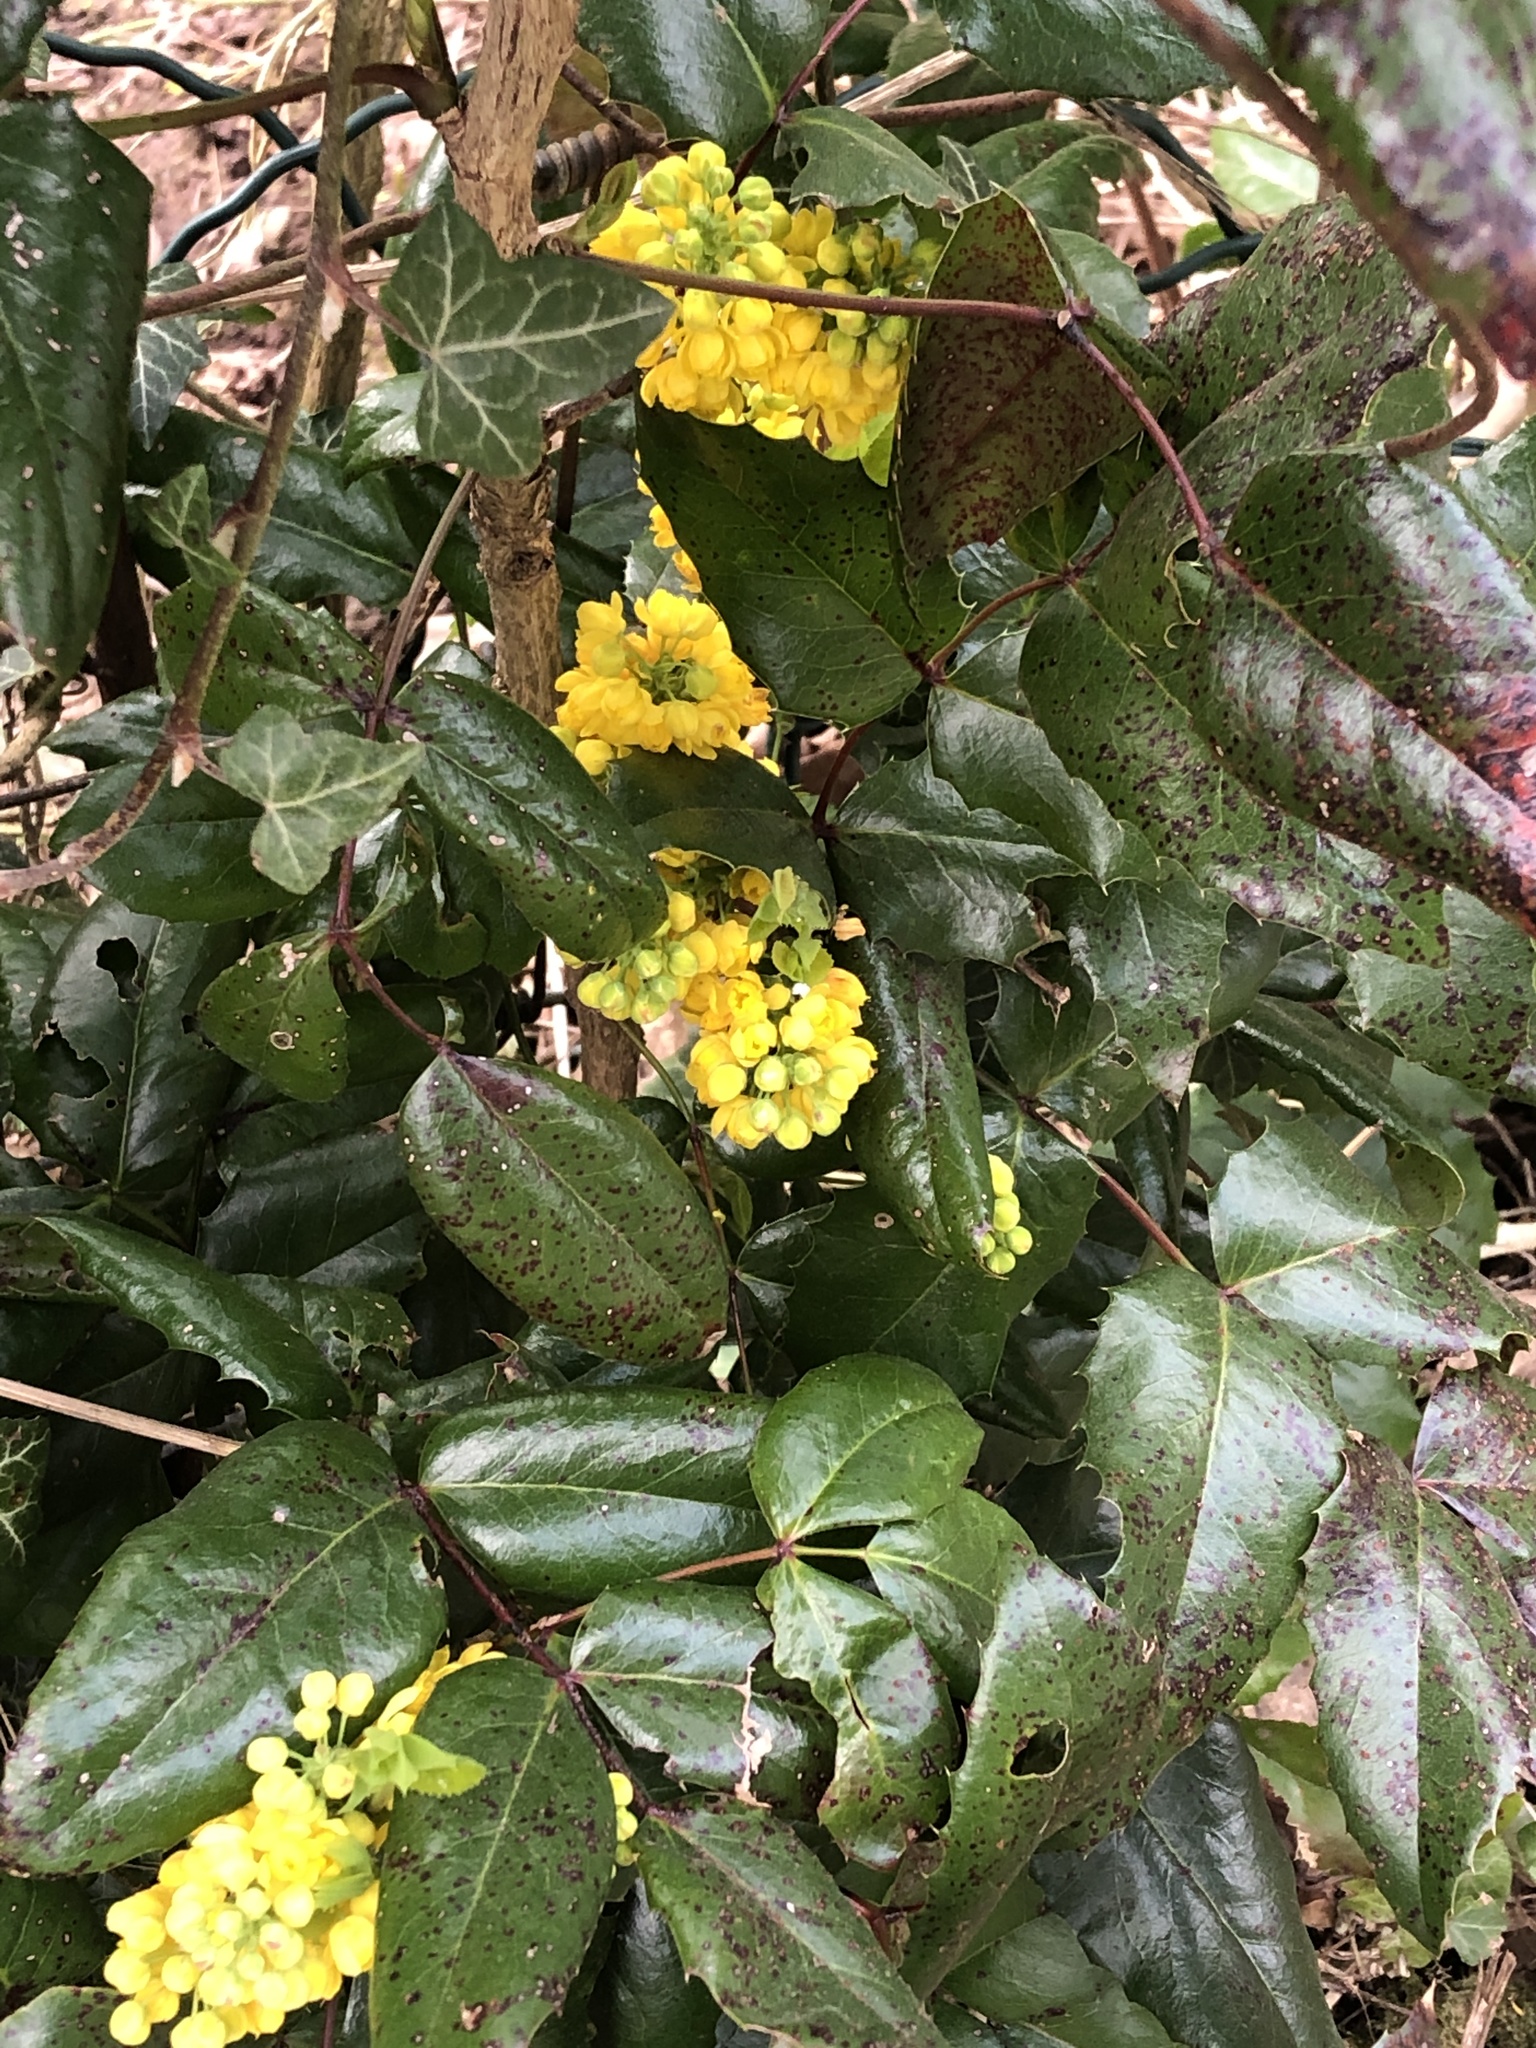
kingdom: Plantae
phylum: Tracheophyta
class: Magnoliopsida
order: Ranunculales
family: Berberidaceae
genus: Mahonia
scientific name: Mahonia aquifolium
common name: Oregon-grape
